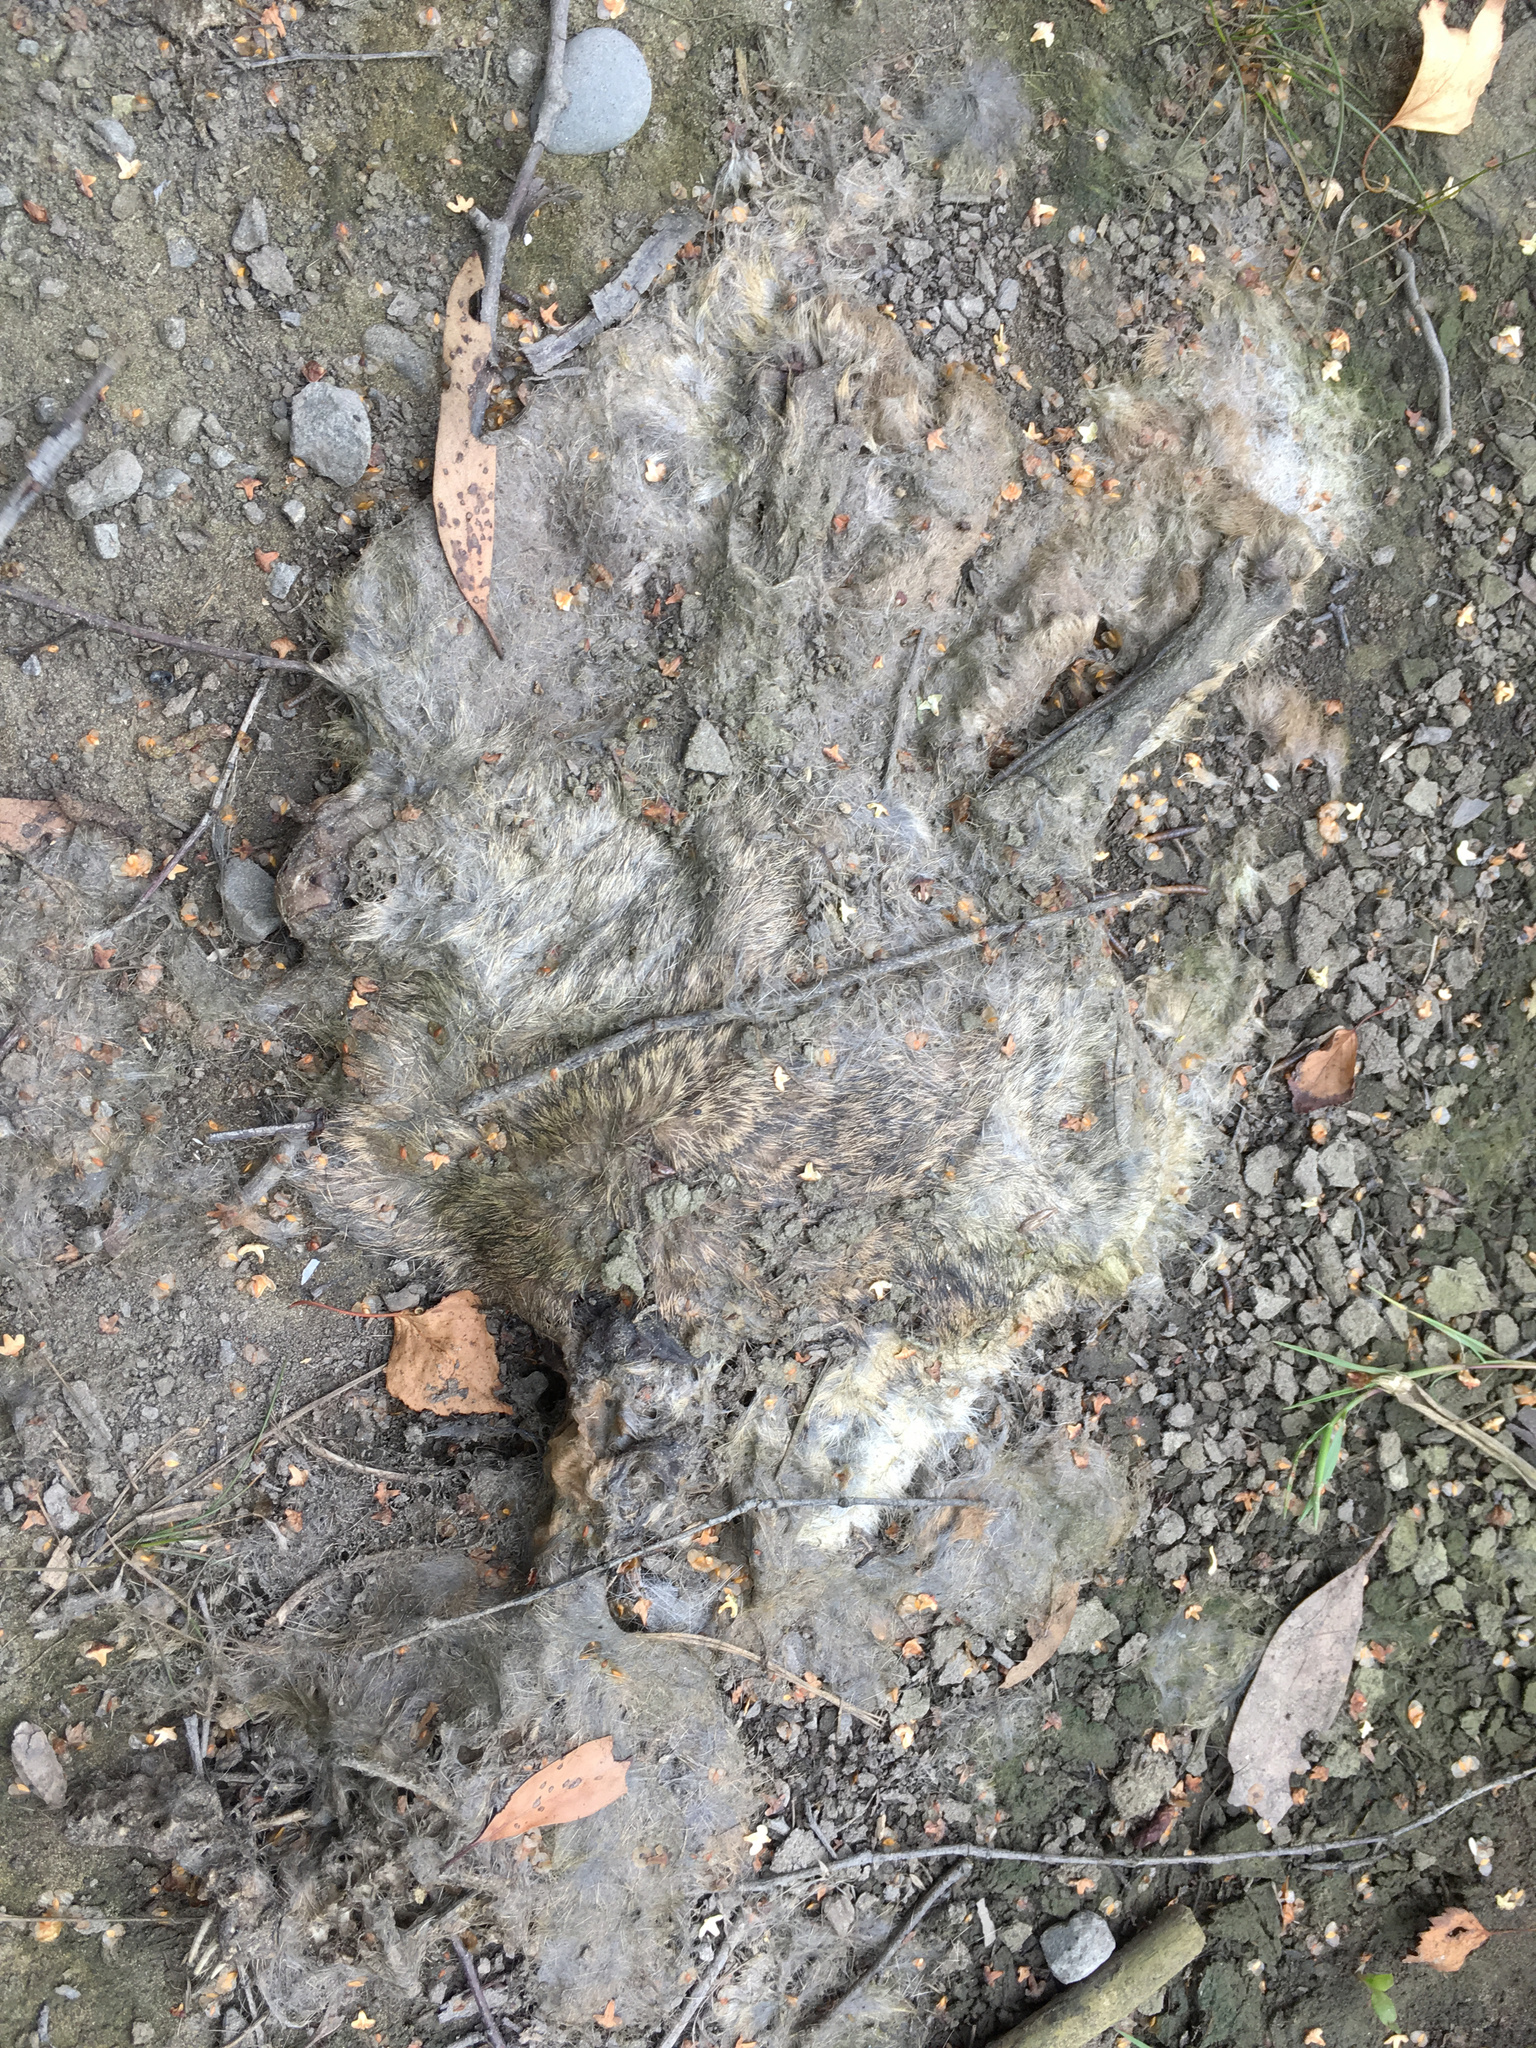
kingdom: Animalia
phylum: Chordata
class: Mammalia
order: Lagomorpha
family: Leporidae
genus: Oryctolagus
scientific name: Oryctolagus cuniculus
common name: European rabbit
